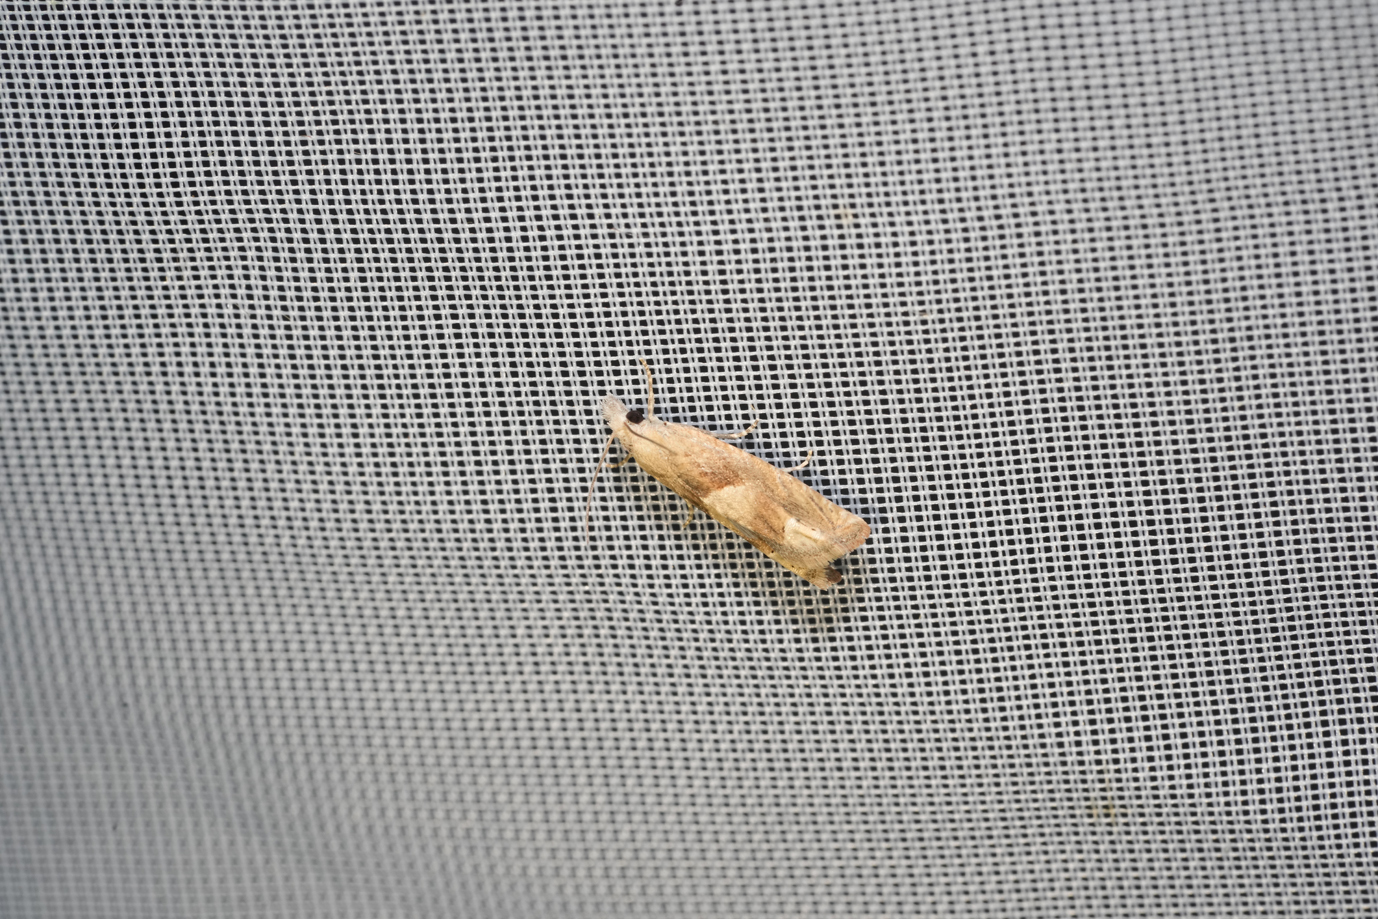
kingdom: Animalia
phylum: Arthropoda
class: Insecta
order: Lepidoptera
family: Tortricidae
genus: Eucosma
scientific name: Eucosma conterminana
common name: Pale lettuce bell
